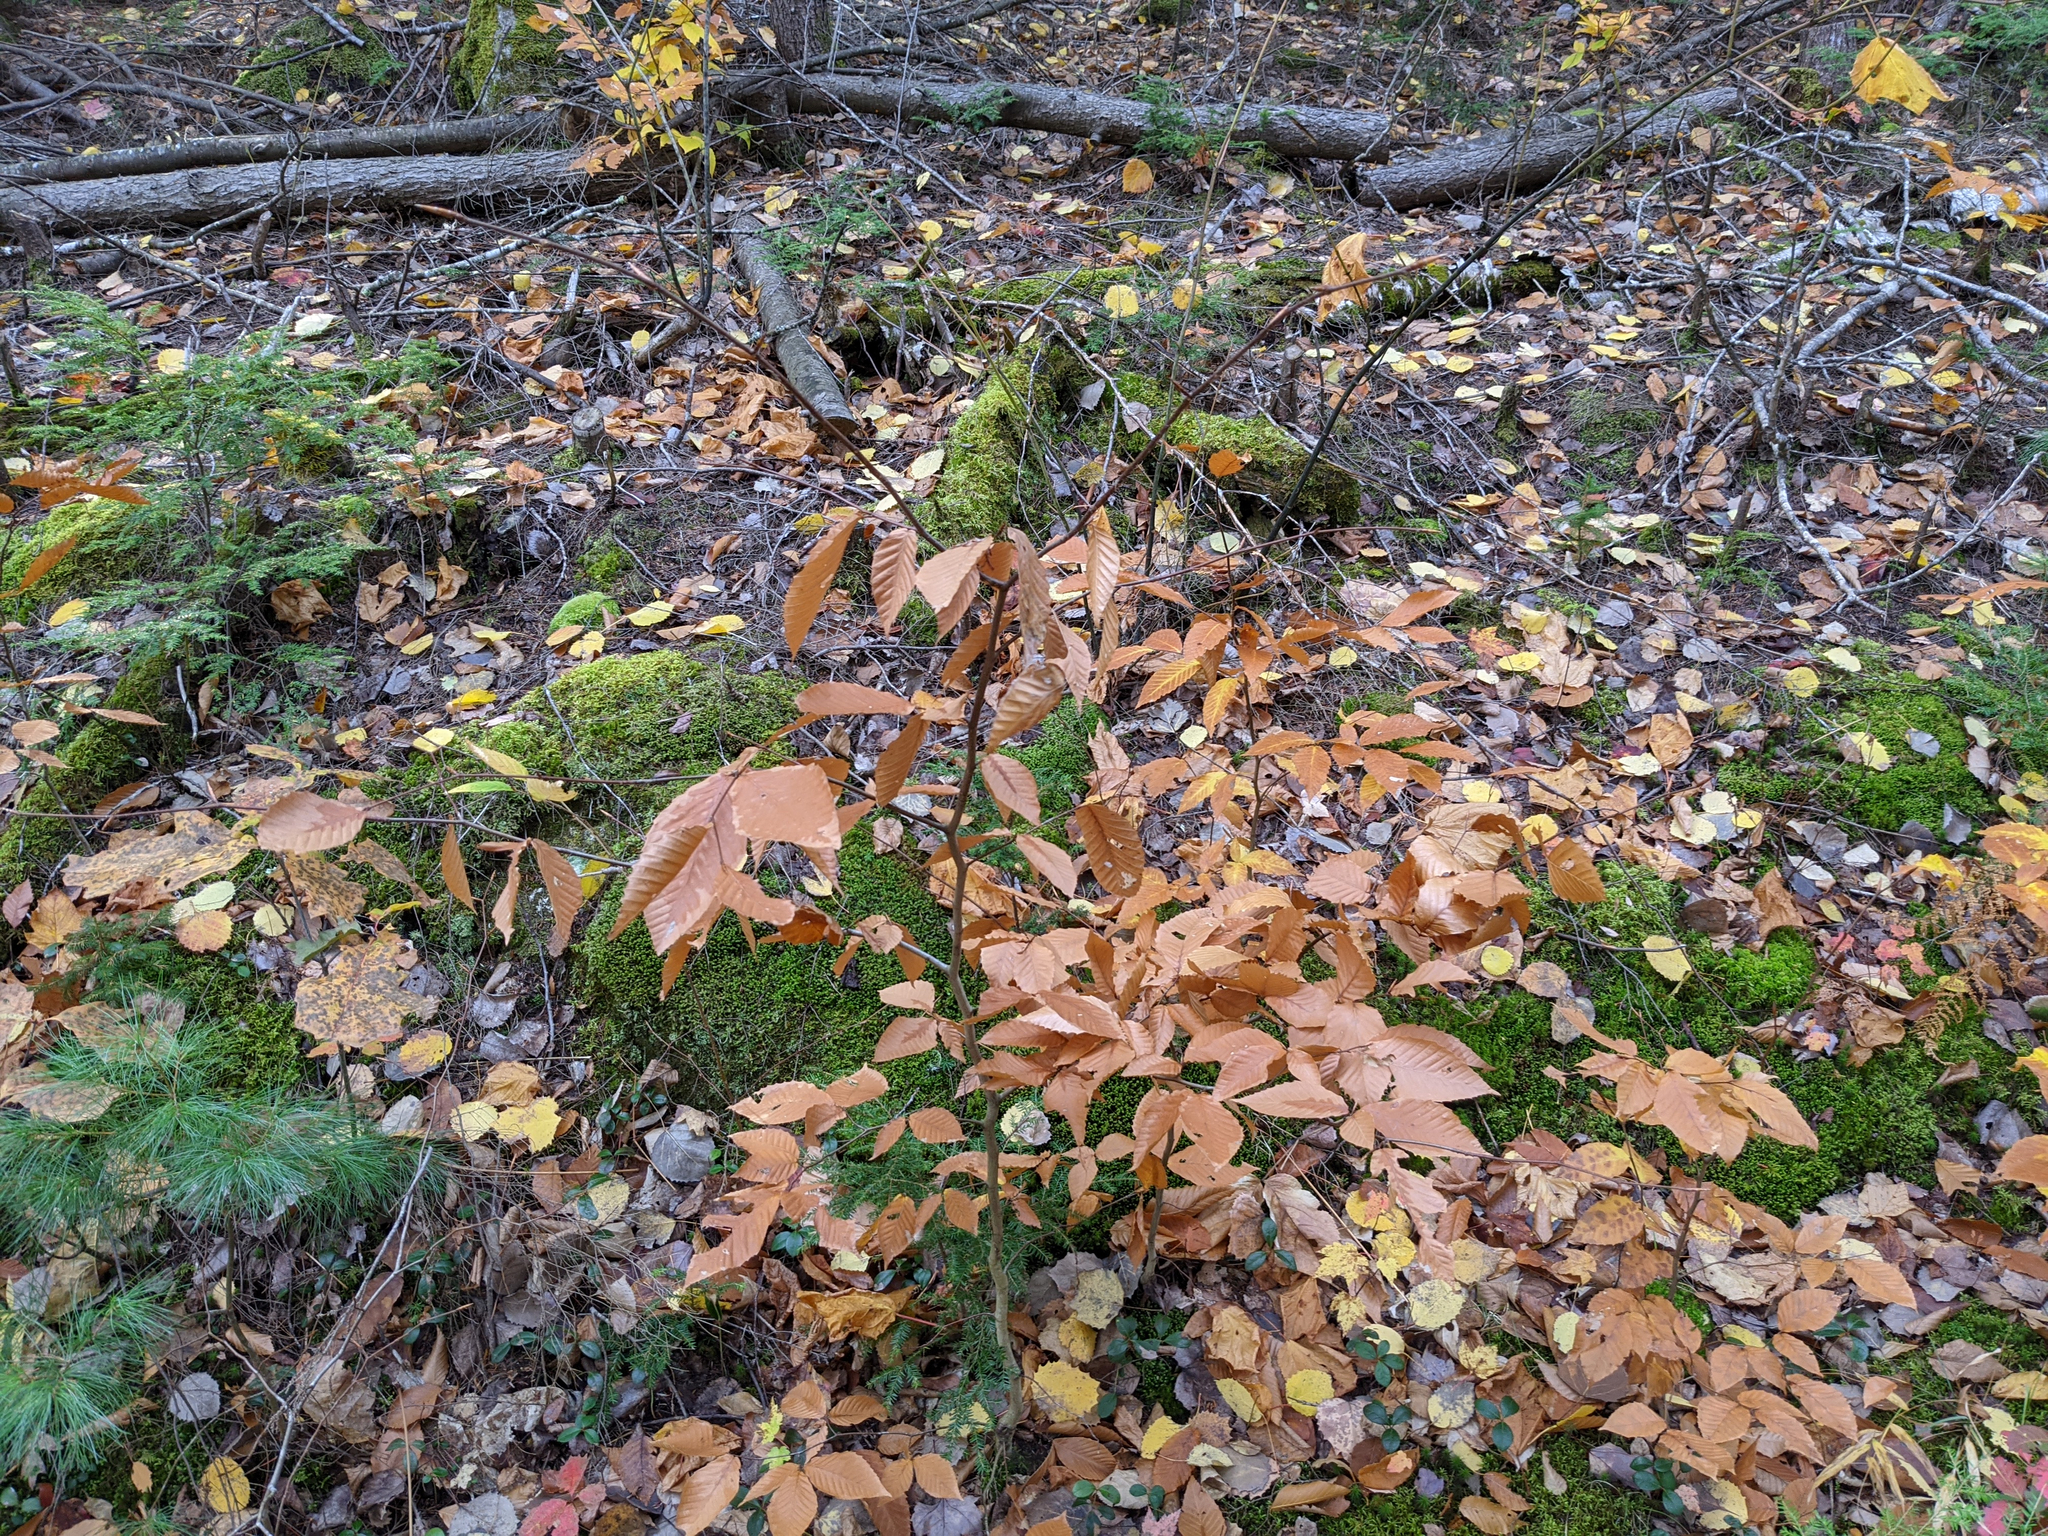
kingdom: Plantae
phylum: Tracheophyta
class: Magnoliopsida
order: Fagales
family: Fagaceae
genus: Fagus
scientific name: Fagus grandifolia
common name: American beech
